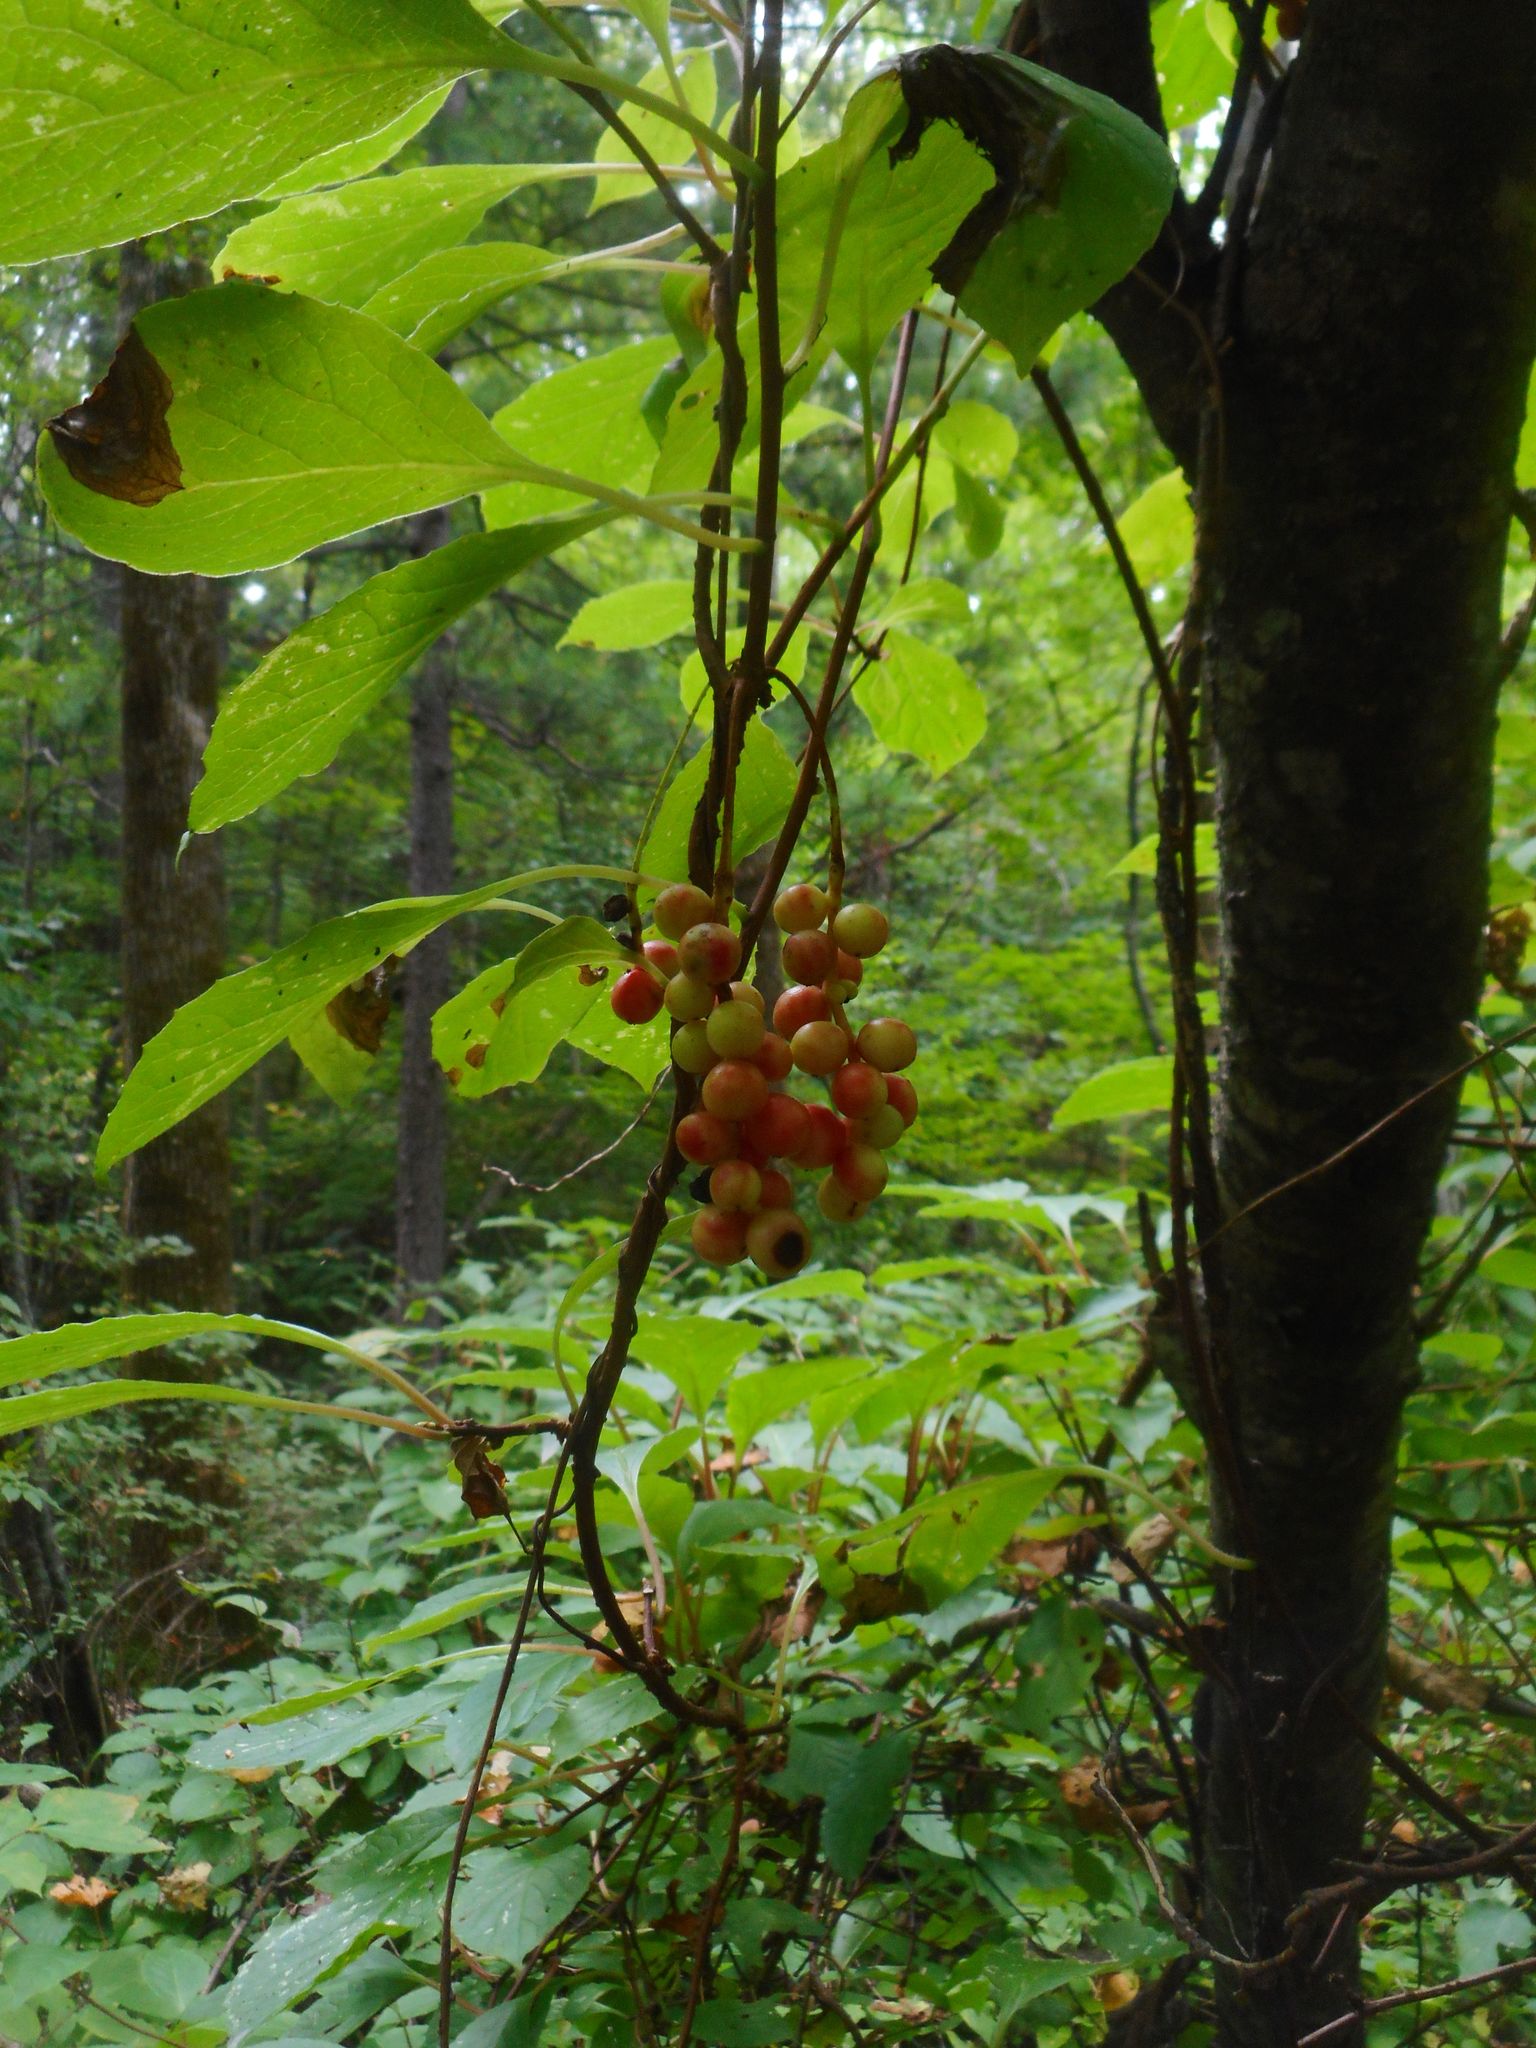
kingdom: Plantae
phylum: Tracheophyta
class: Magnoliopsida
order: Austrobaileyales
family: Schisandraceae
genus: Schisandra
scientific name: Schisandra chinensis
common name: Magnolia-vine
